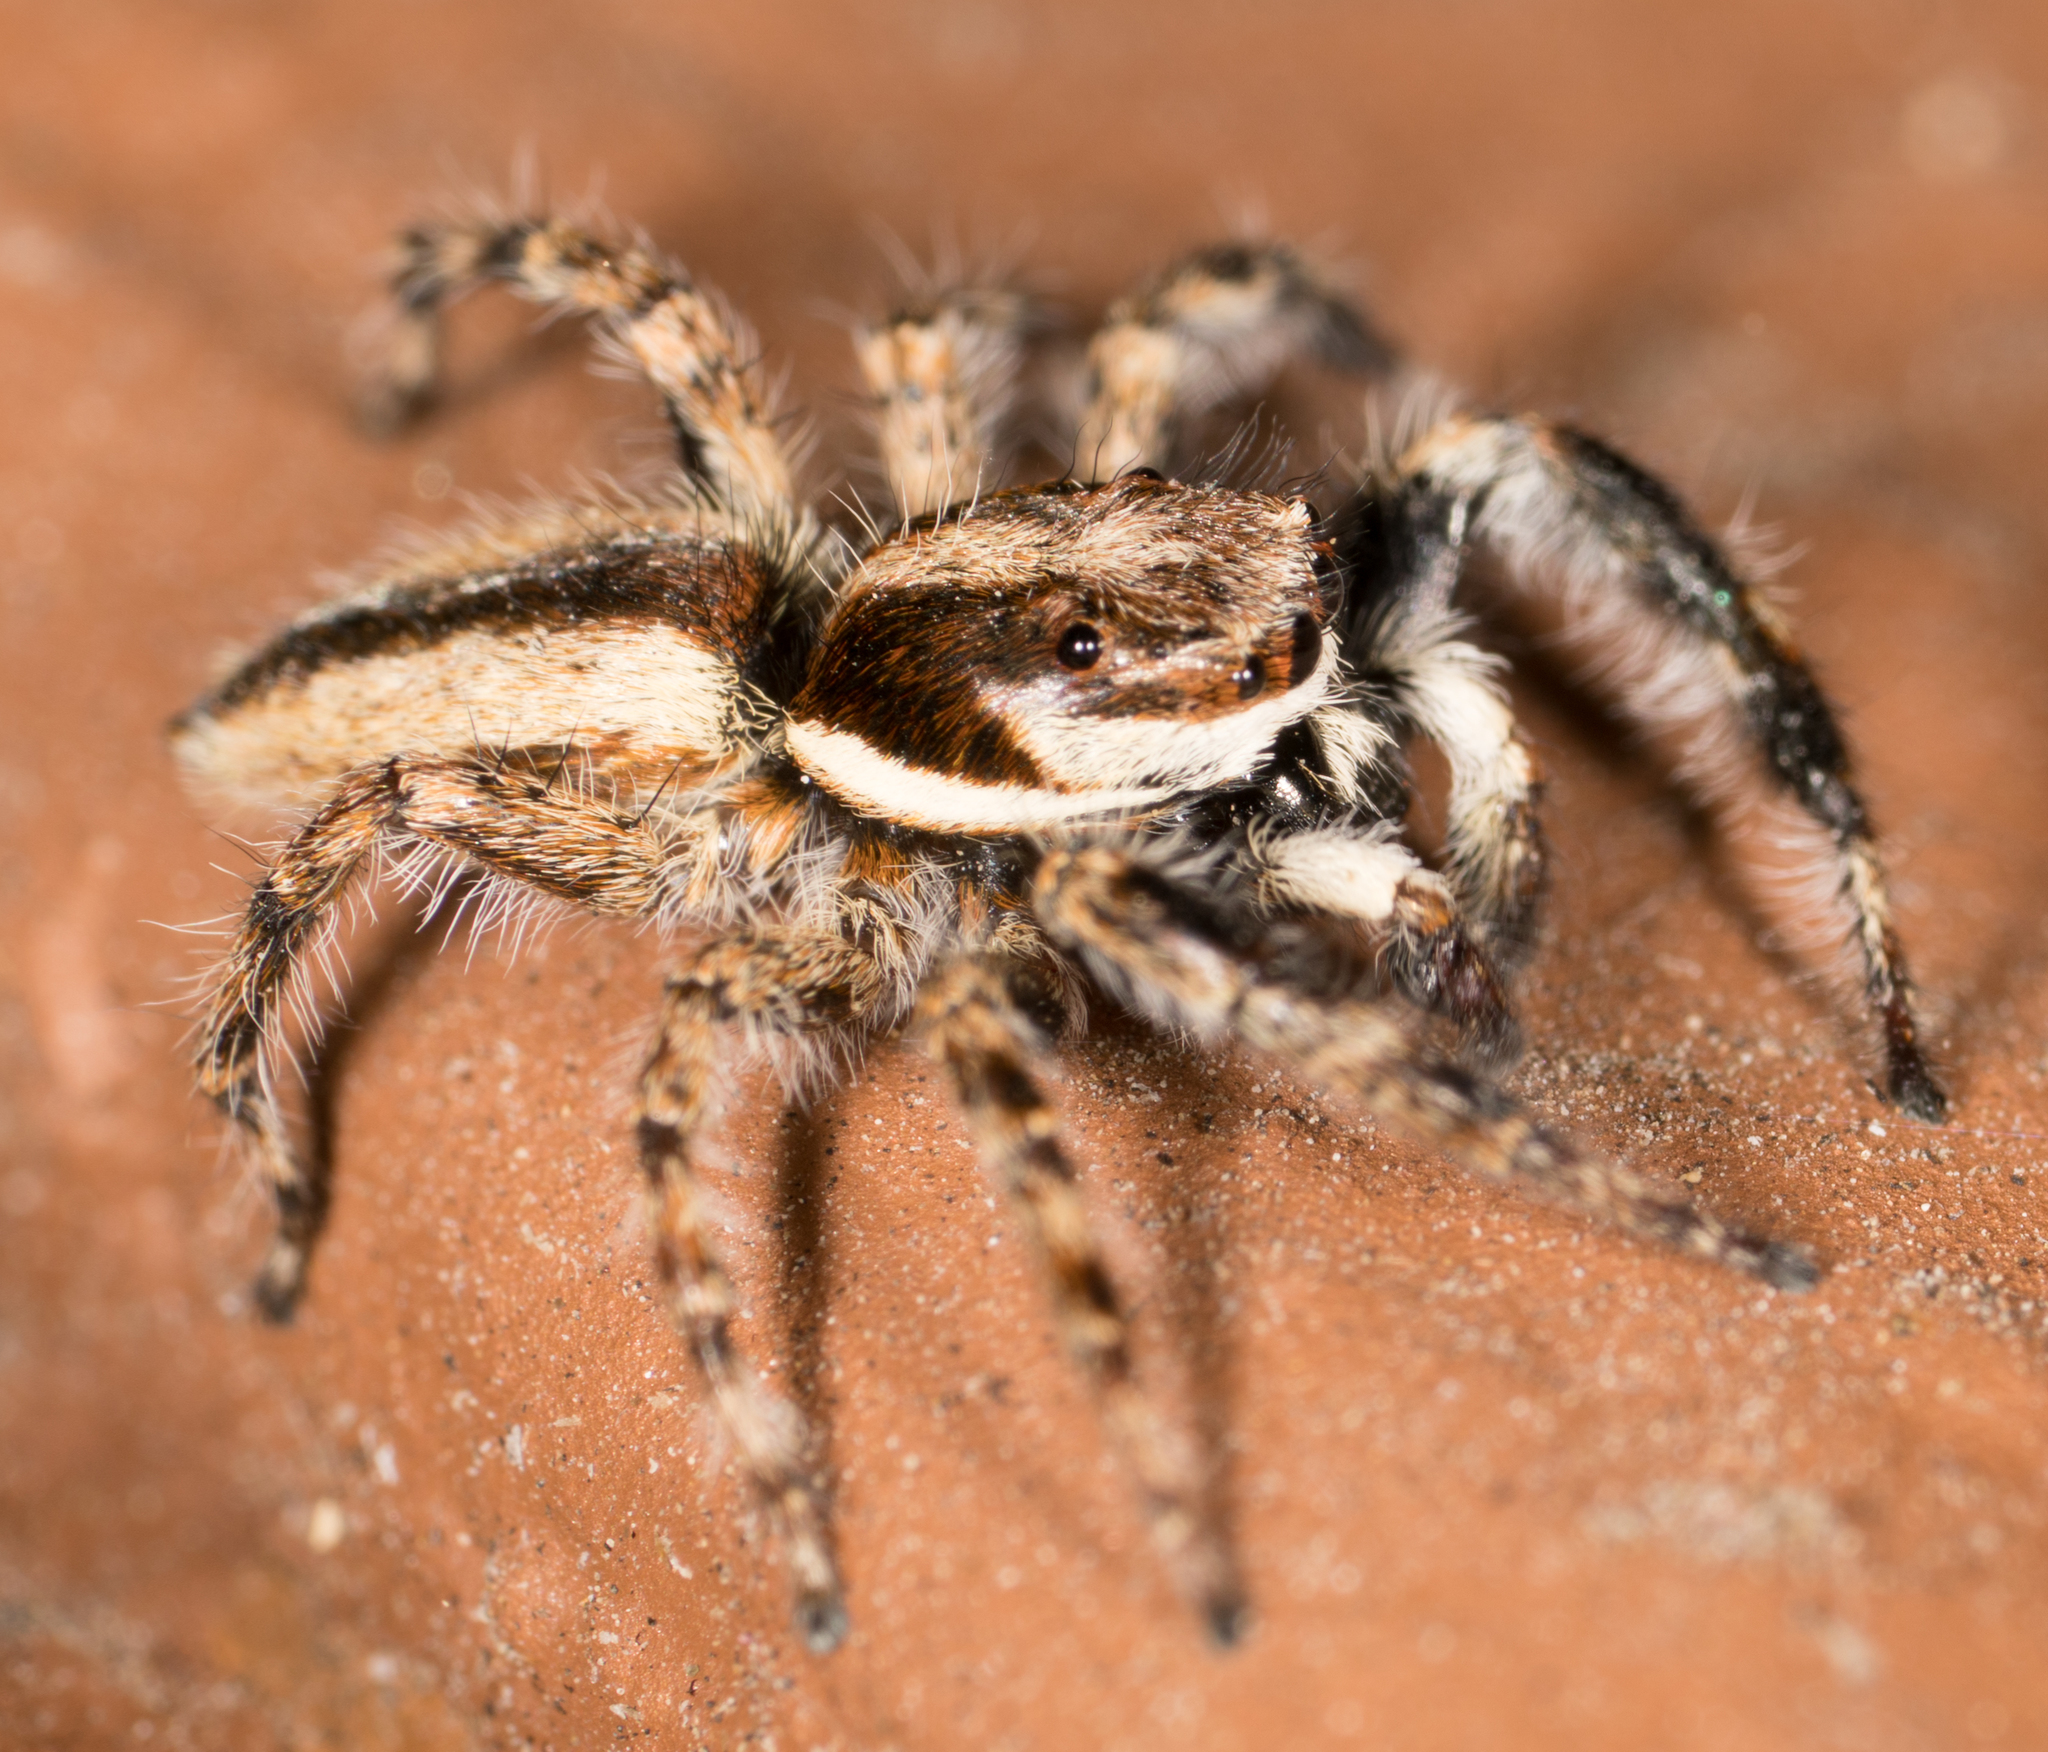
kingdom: Animalia
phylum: Arthropoda
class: Arachnida
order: Araneae
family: Salticidae
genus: Menemerus
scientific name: Menemerus bivittatus
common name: Gray wall jumper
